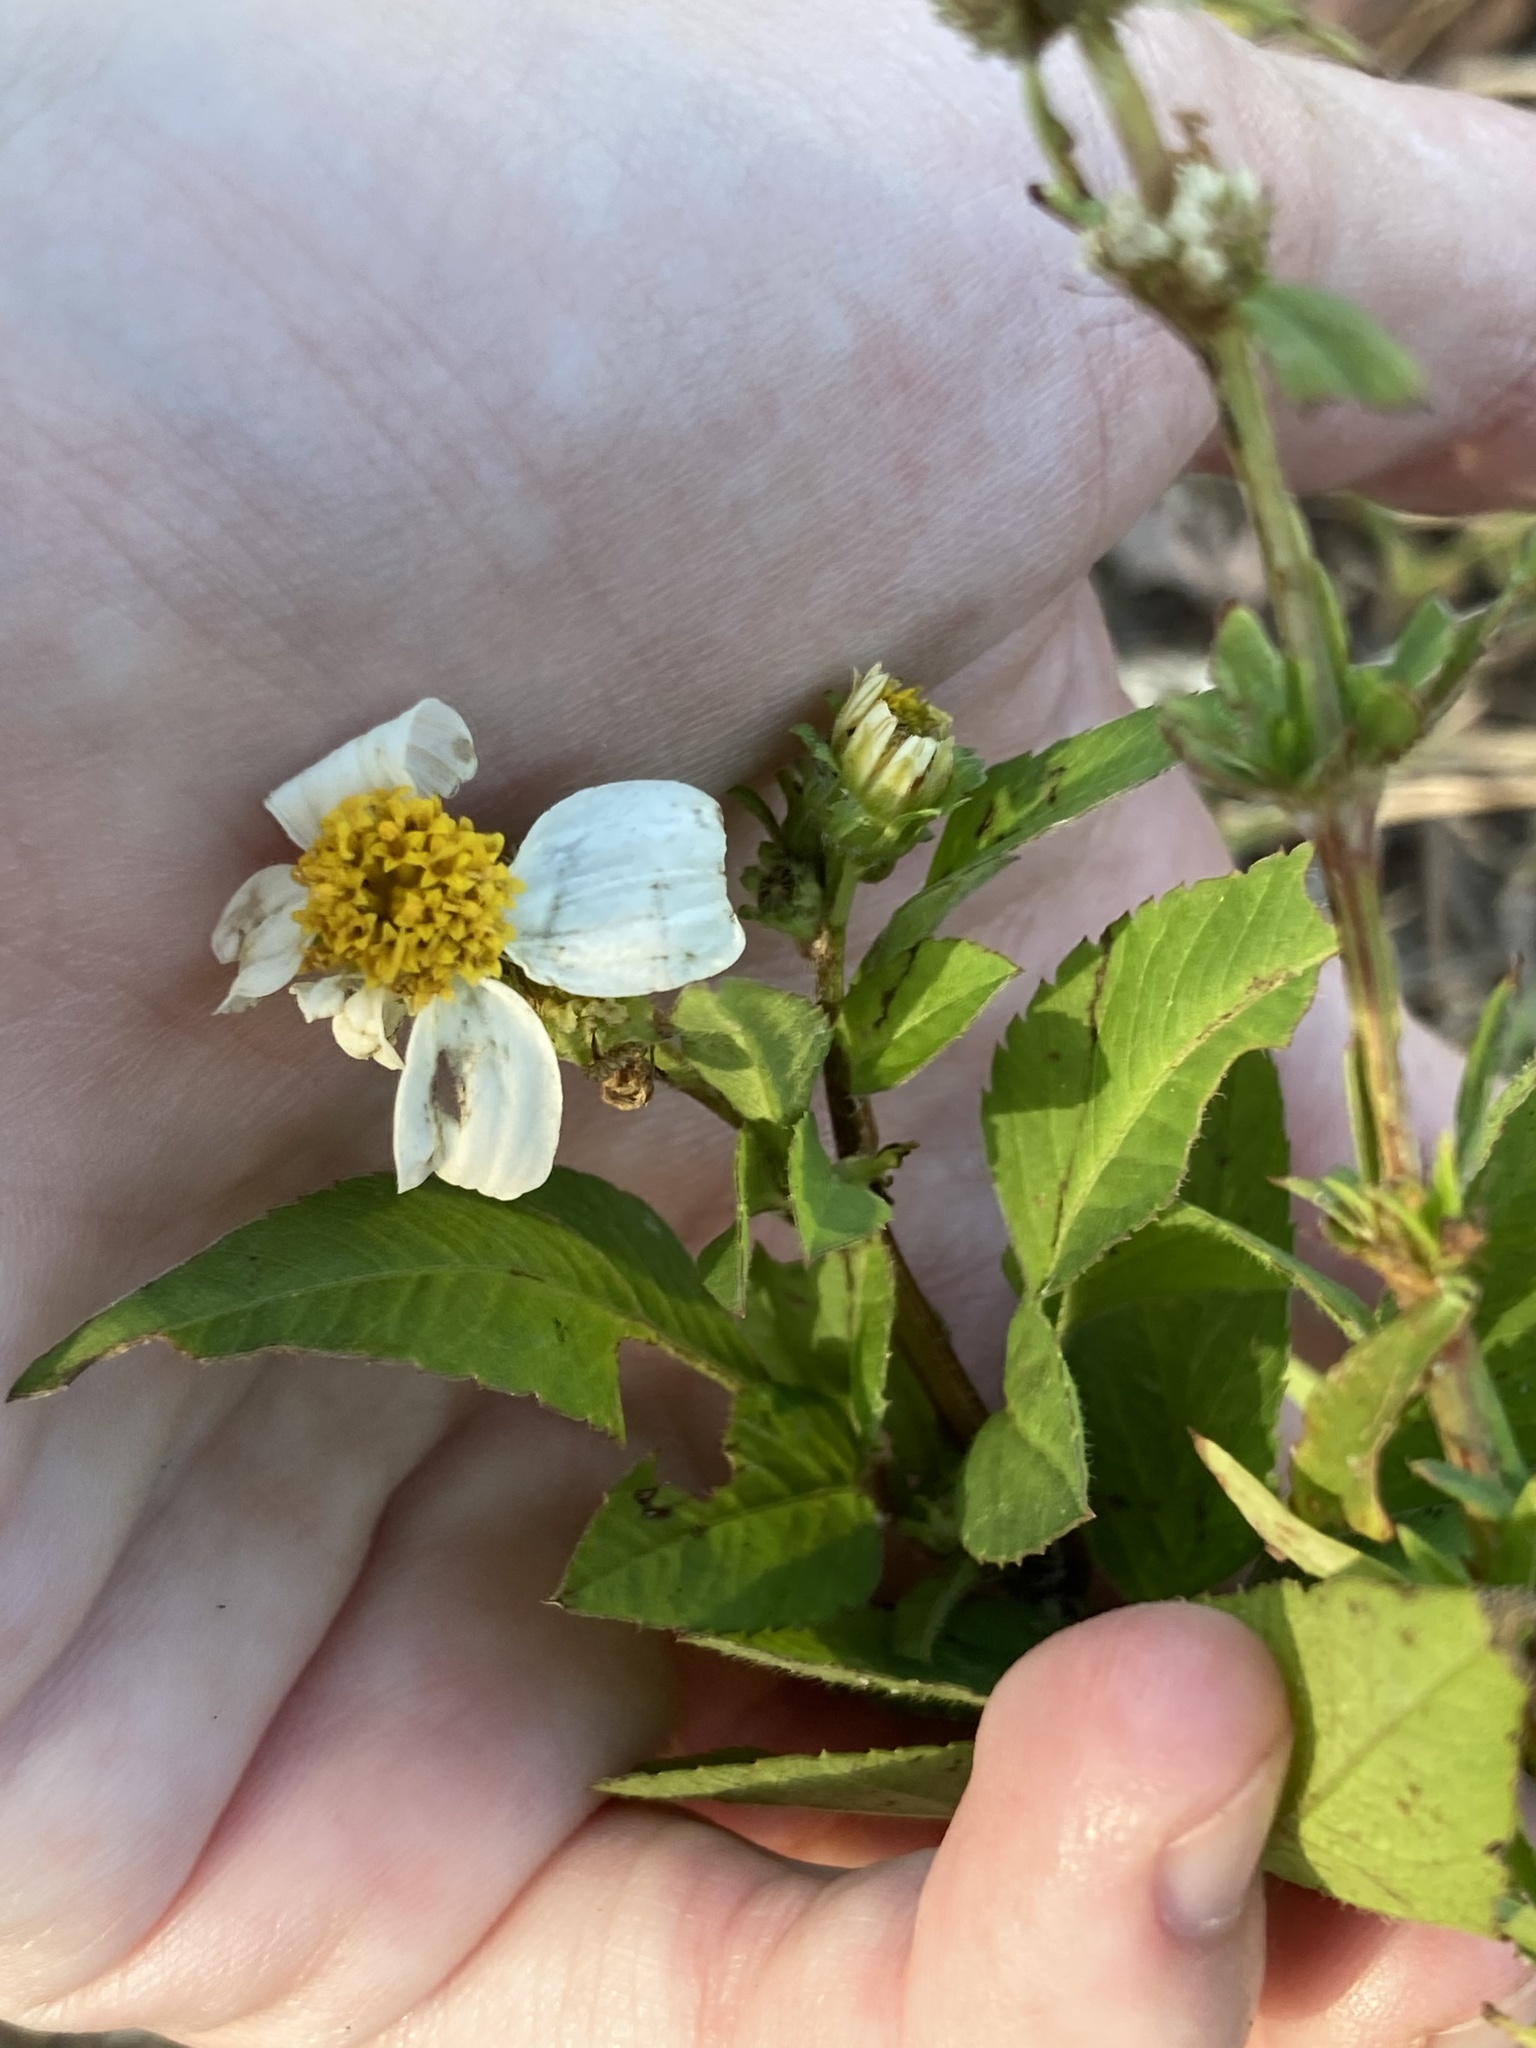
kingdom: Plantae
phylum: Tracheophyta
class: Magnoliopsida
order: Asterales
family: Asteraceae
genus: Bidens
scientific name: Bidens alba
